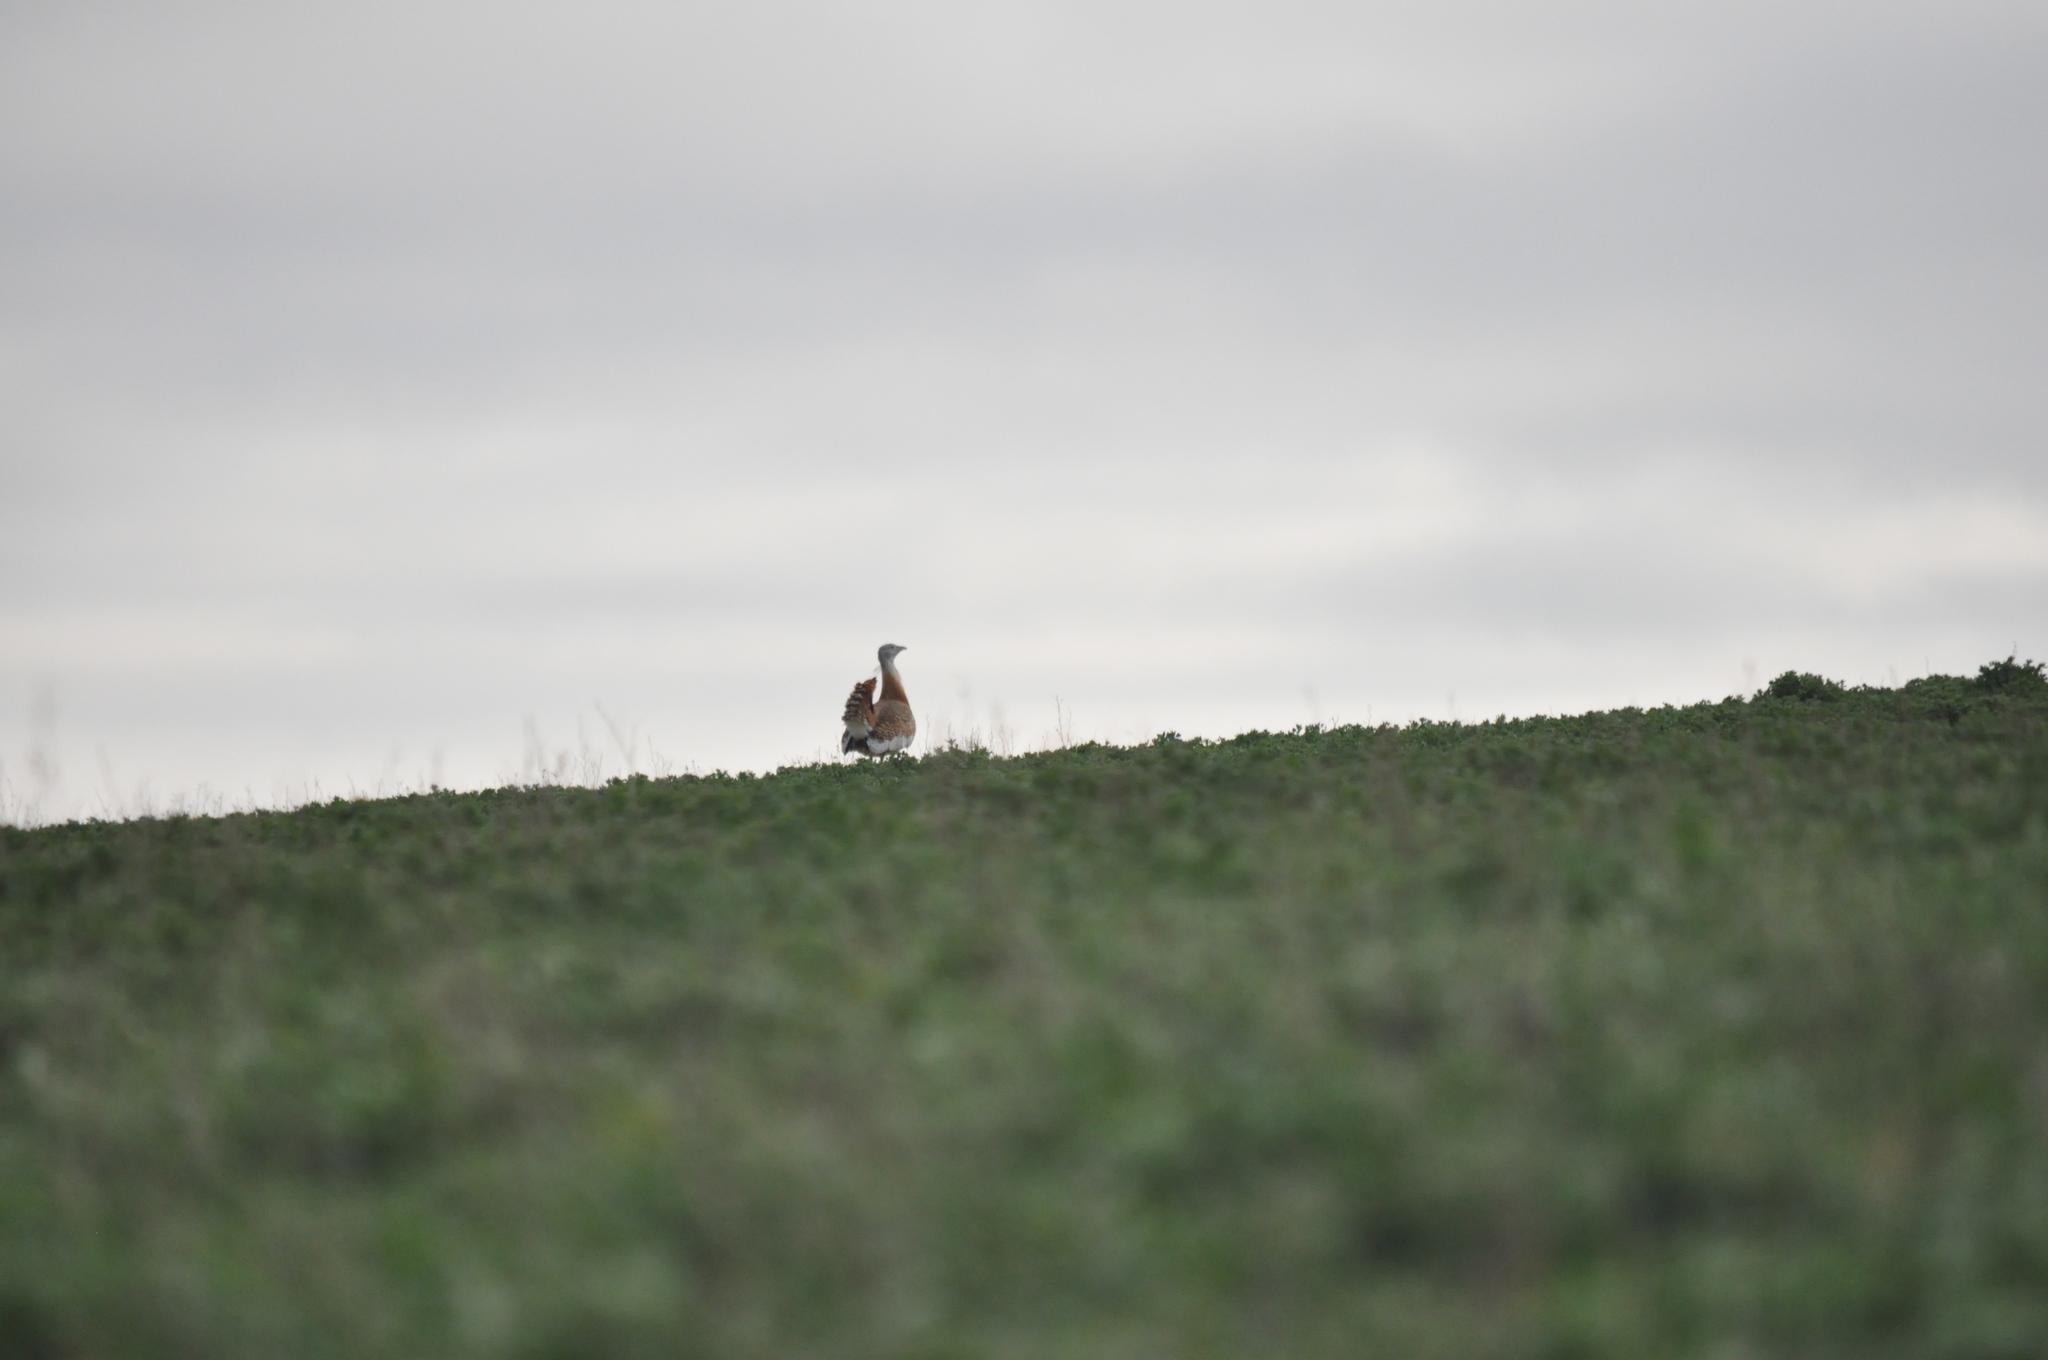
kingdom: Animalia
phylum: Chordata
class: Aves
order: Otidiformes
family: Otididae
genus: Otis
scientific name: Otis tarda
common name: Great bustard
